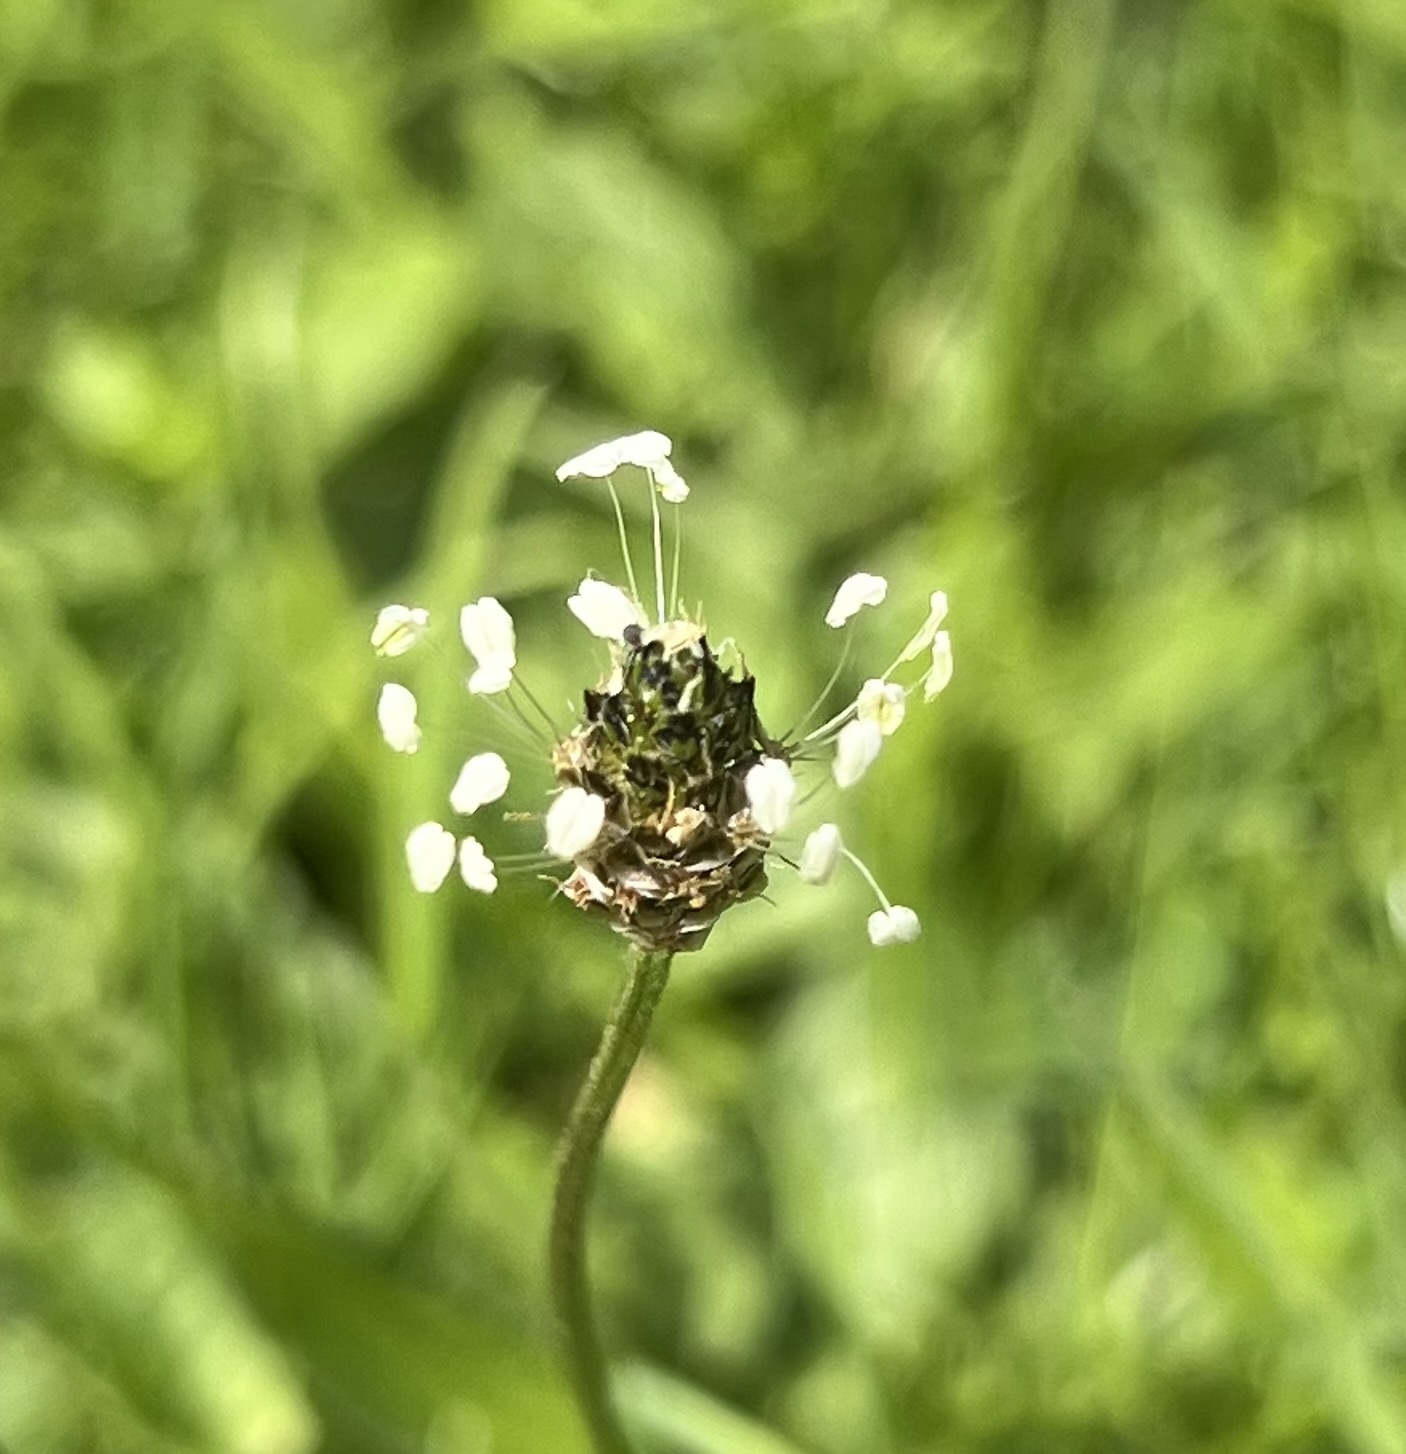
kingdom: Plantae
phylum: Tracheophyta
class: Magnoliopsida
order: Lamiales
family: Plantaginaceae
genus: Plantago
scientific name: Plantago lanceolata
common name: Ribwort plantain
